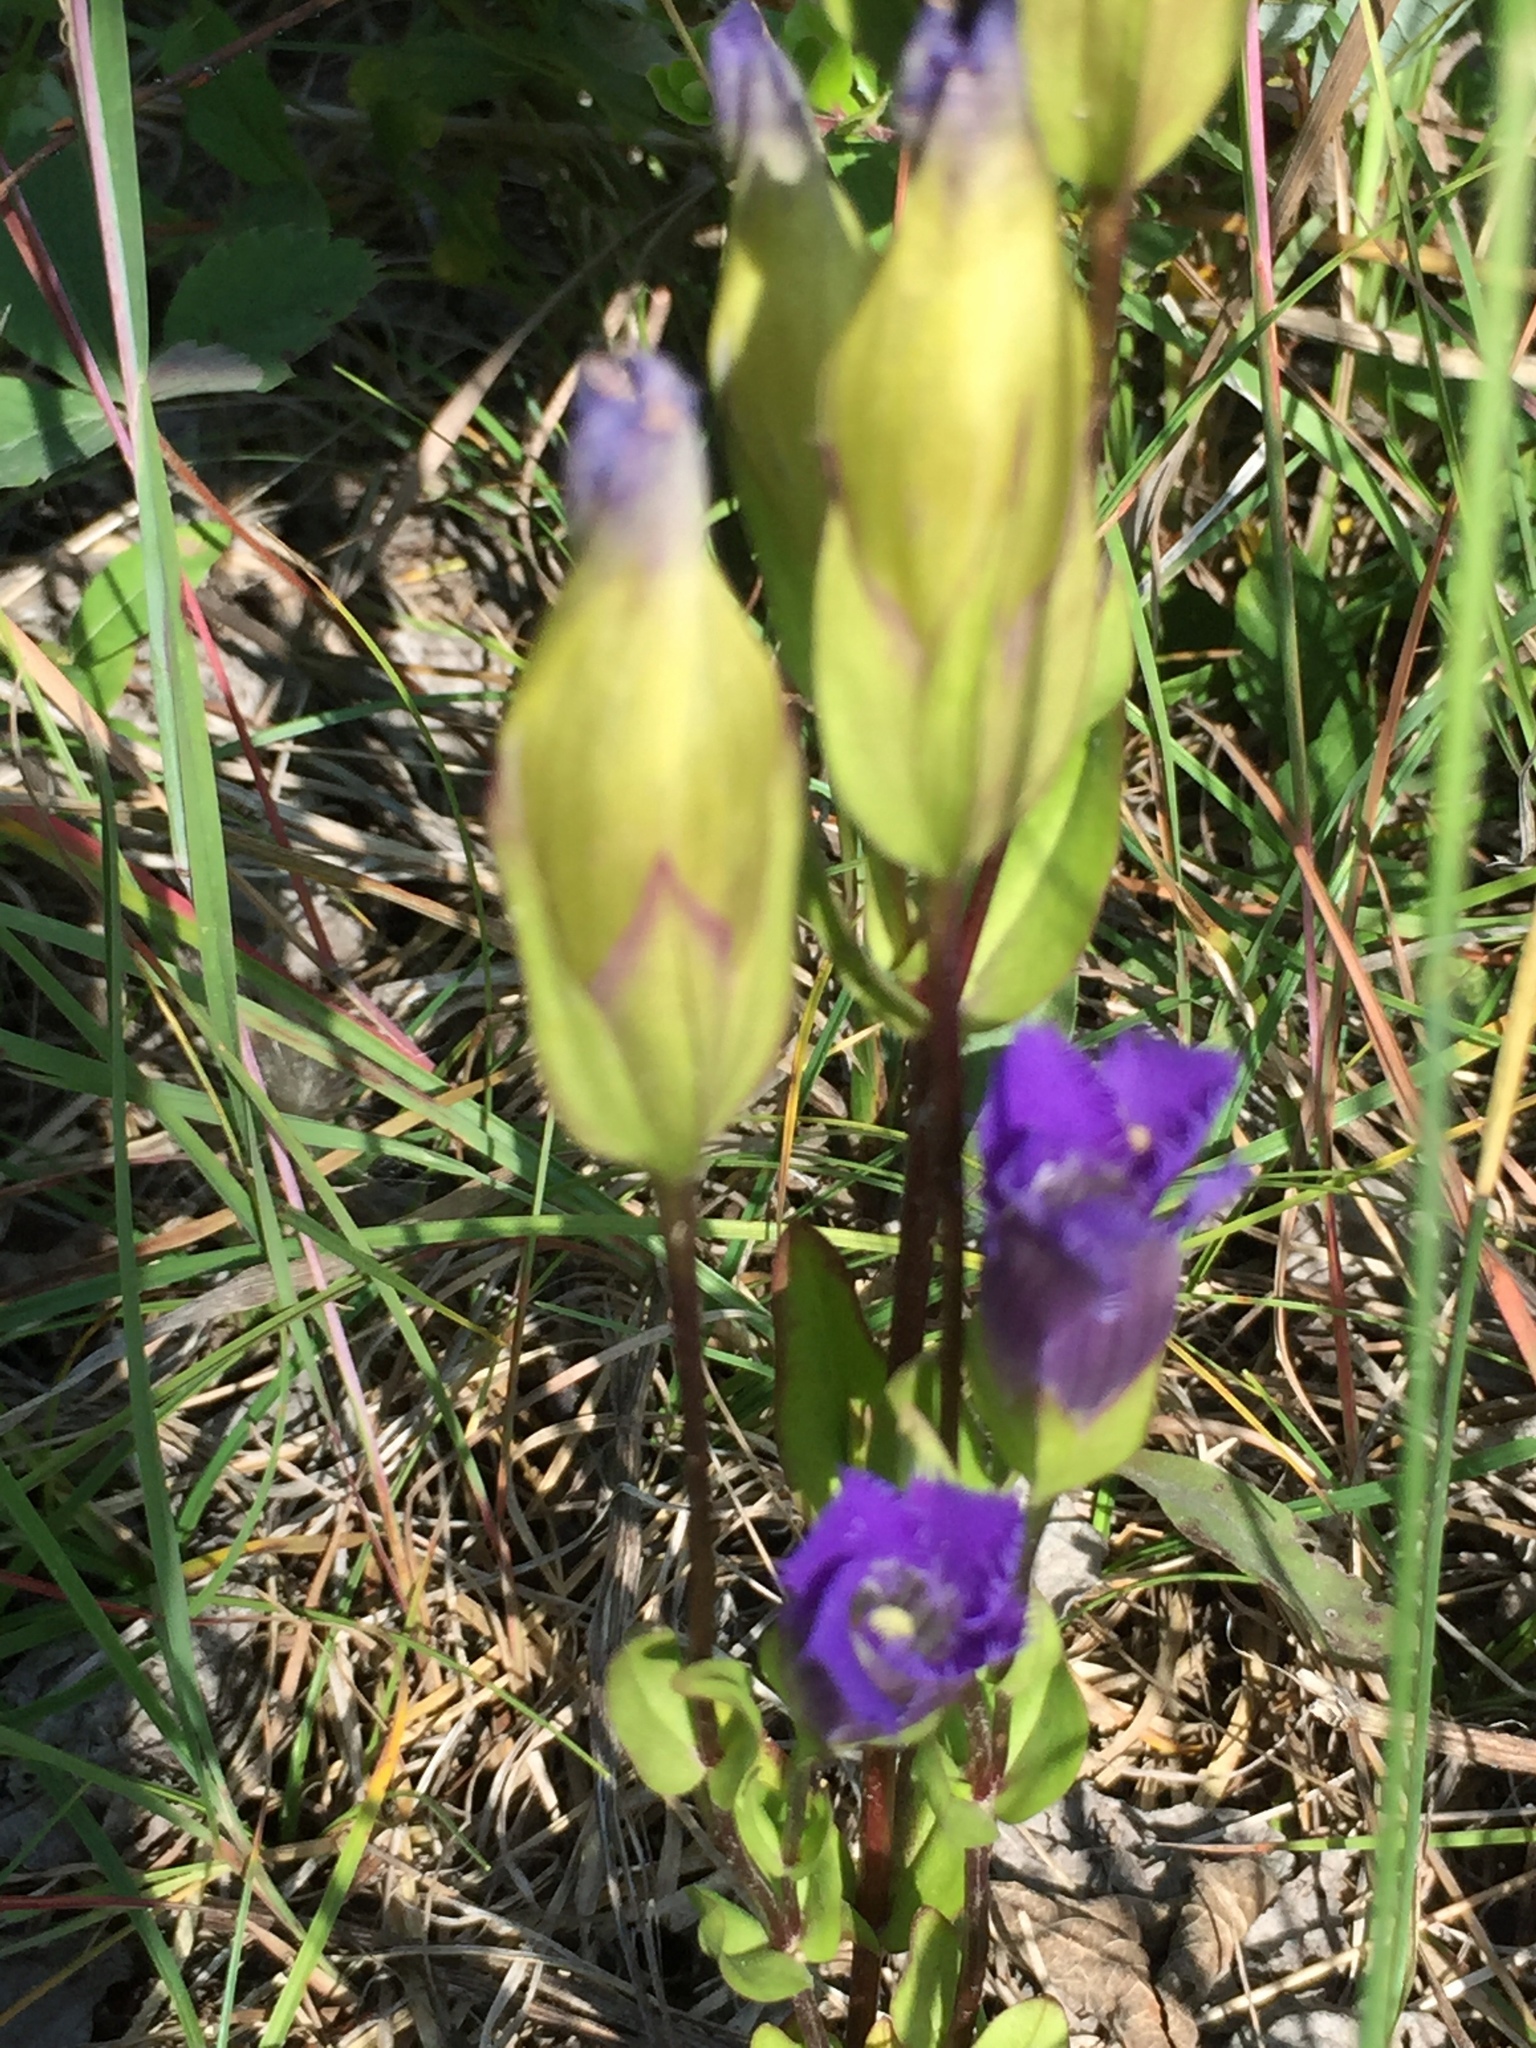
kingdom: Plantae
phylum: Tracheophyta
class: Magnoliopsida
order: Gentianales
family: Gentianaceae
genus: Gentianopsis
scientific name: Gentianopsis crinita
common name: Fringed-gentian
